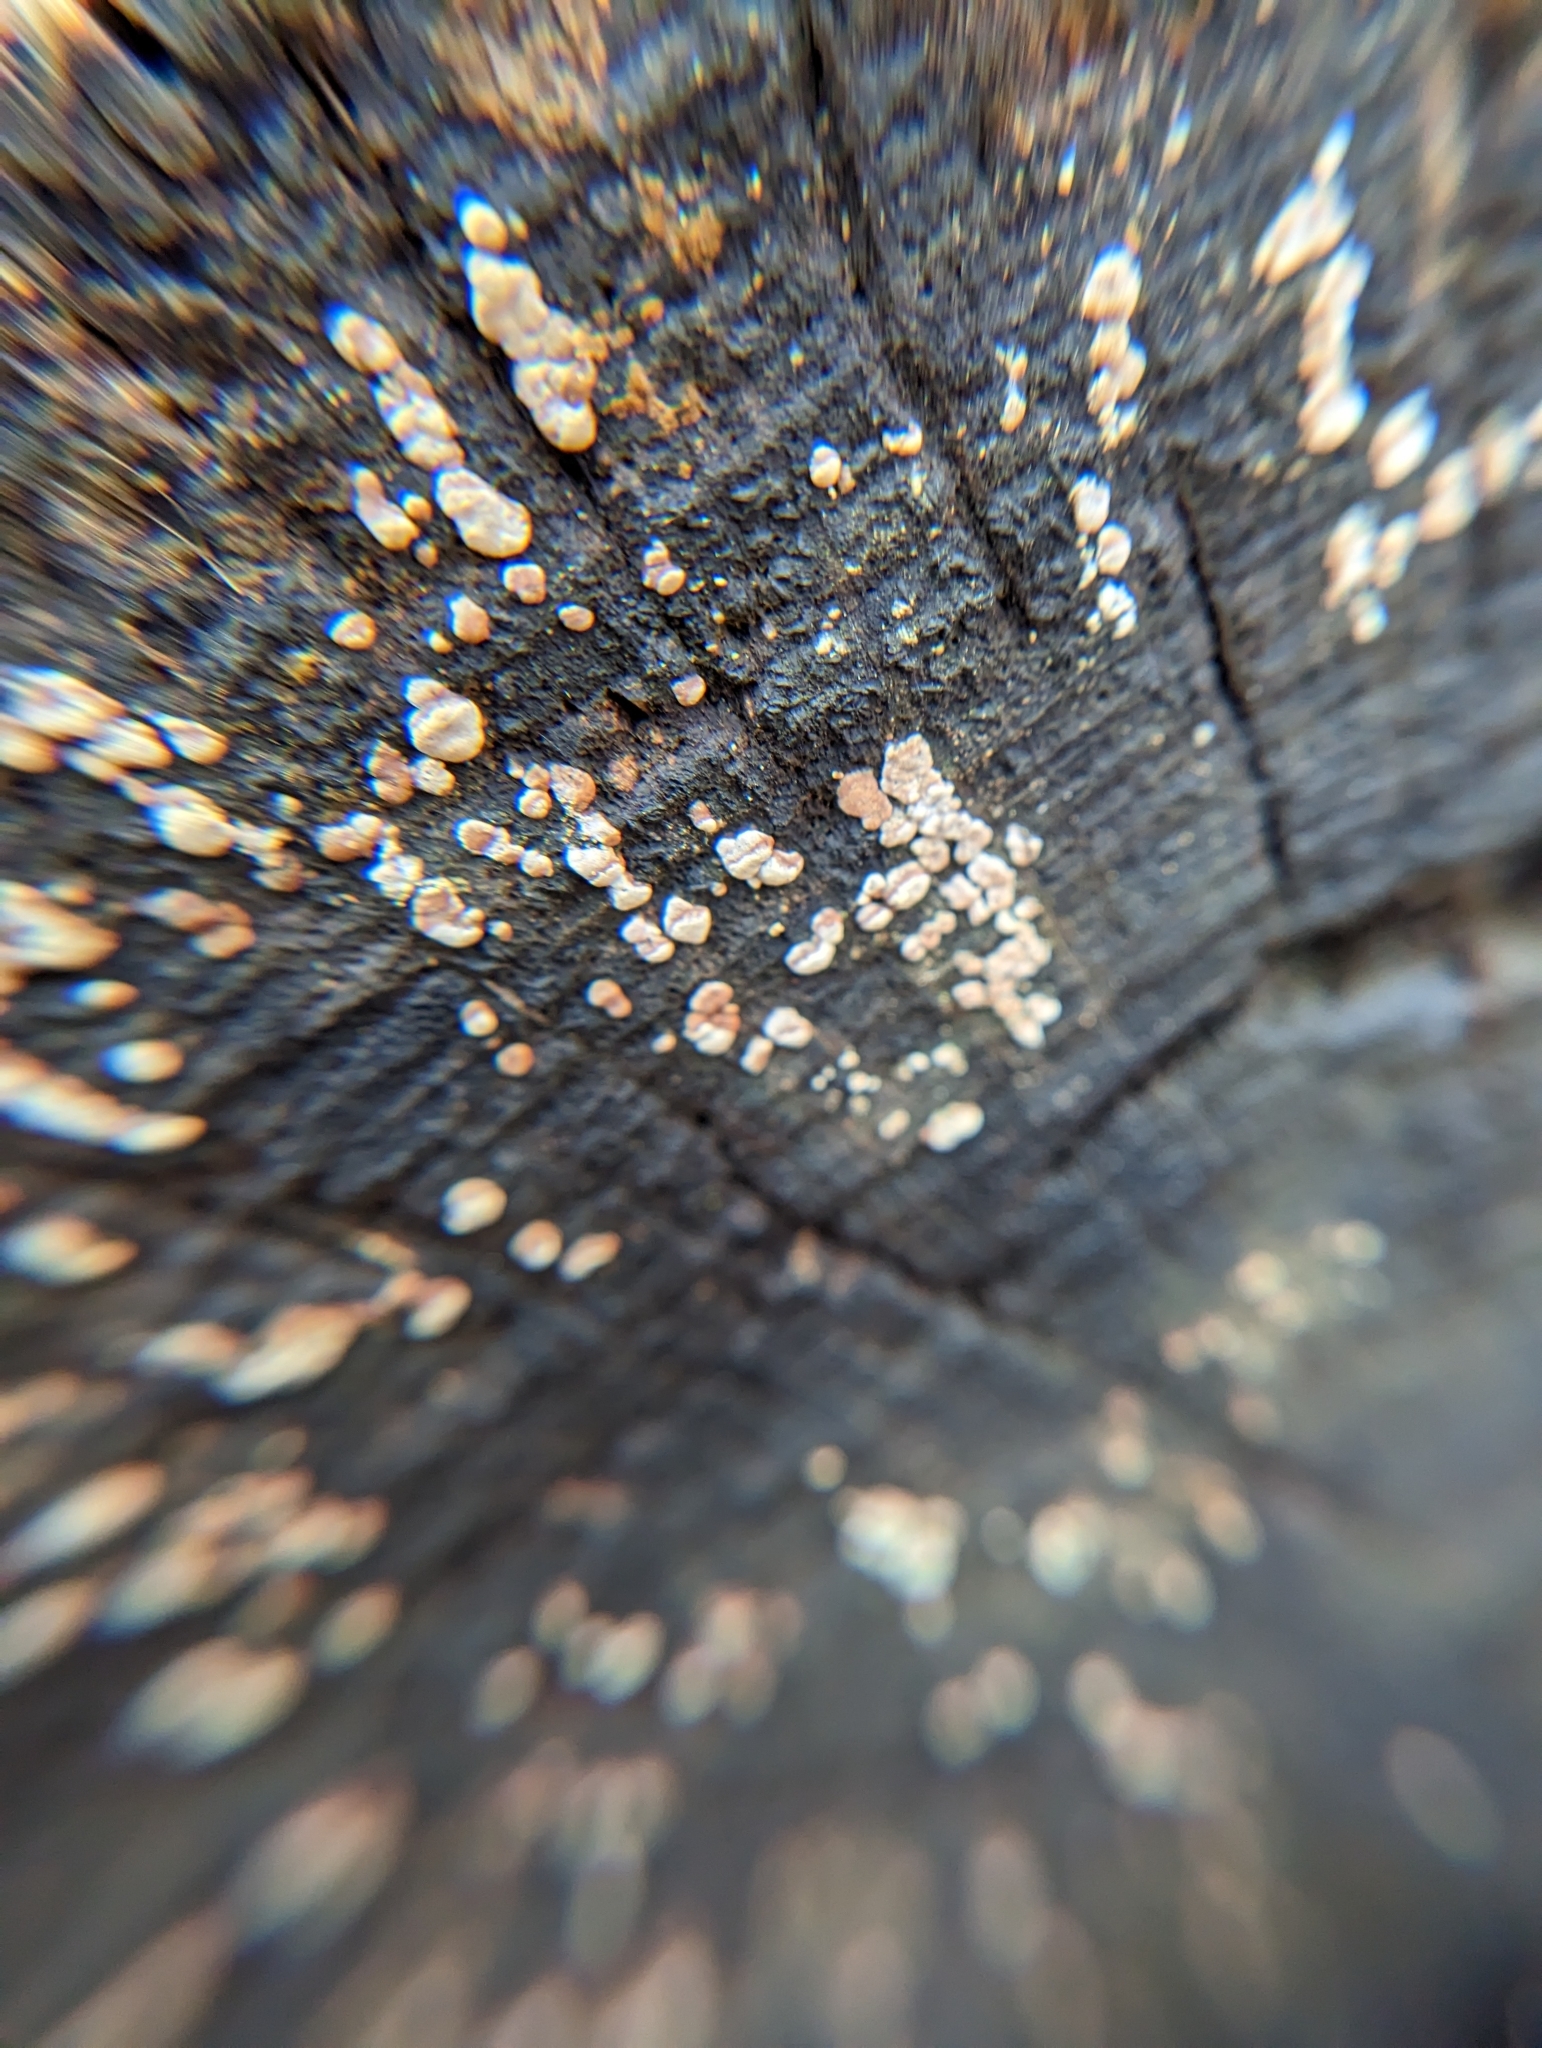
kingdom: Fungi
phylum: Basidiomycota
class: Agaricomycetes
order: Russulales
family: Stereaceae
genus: Xylobolus
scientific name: Xylobolus frustulatus
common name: Ceramic parchment
